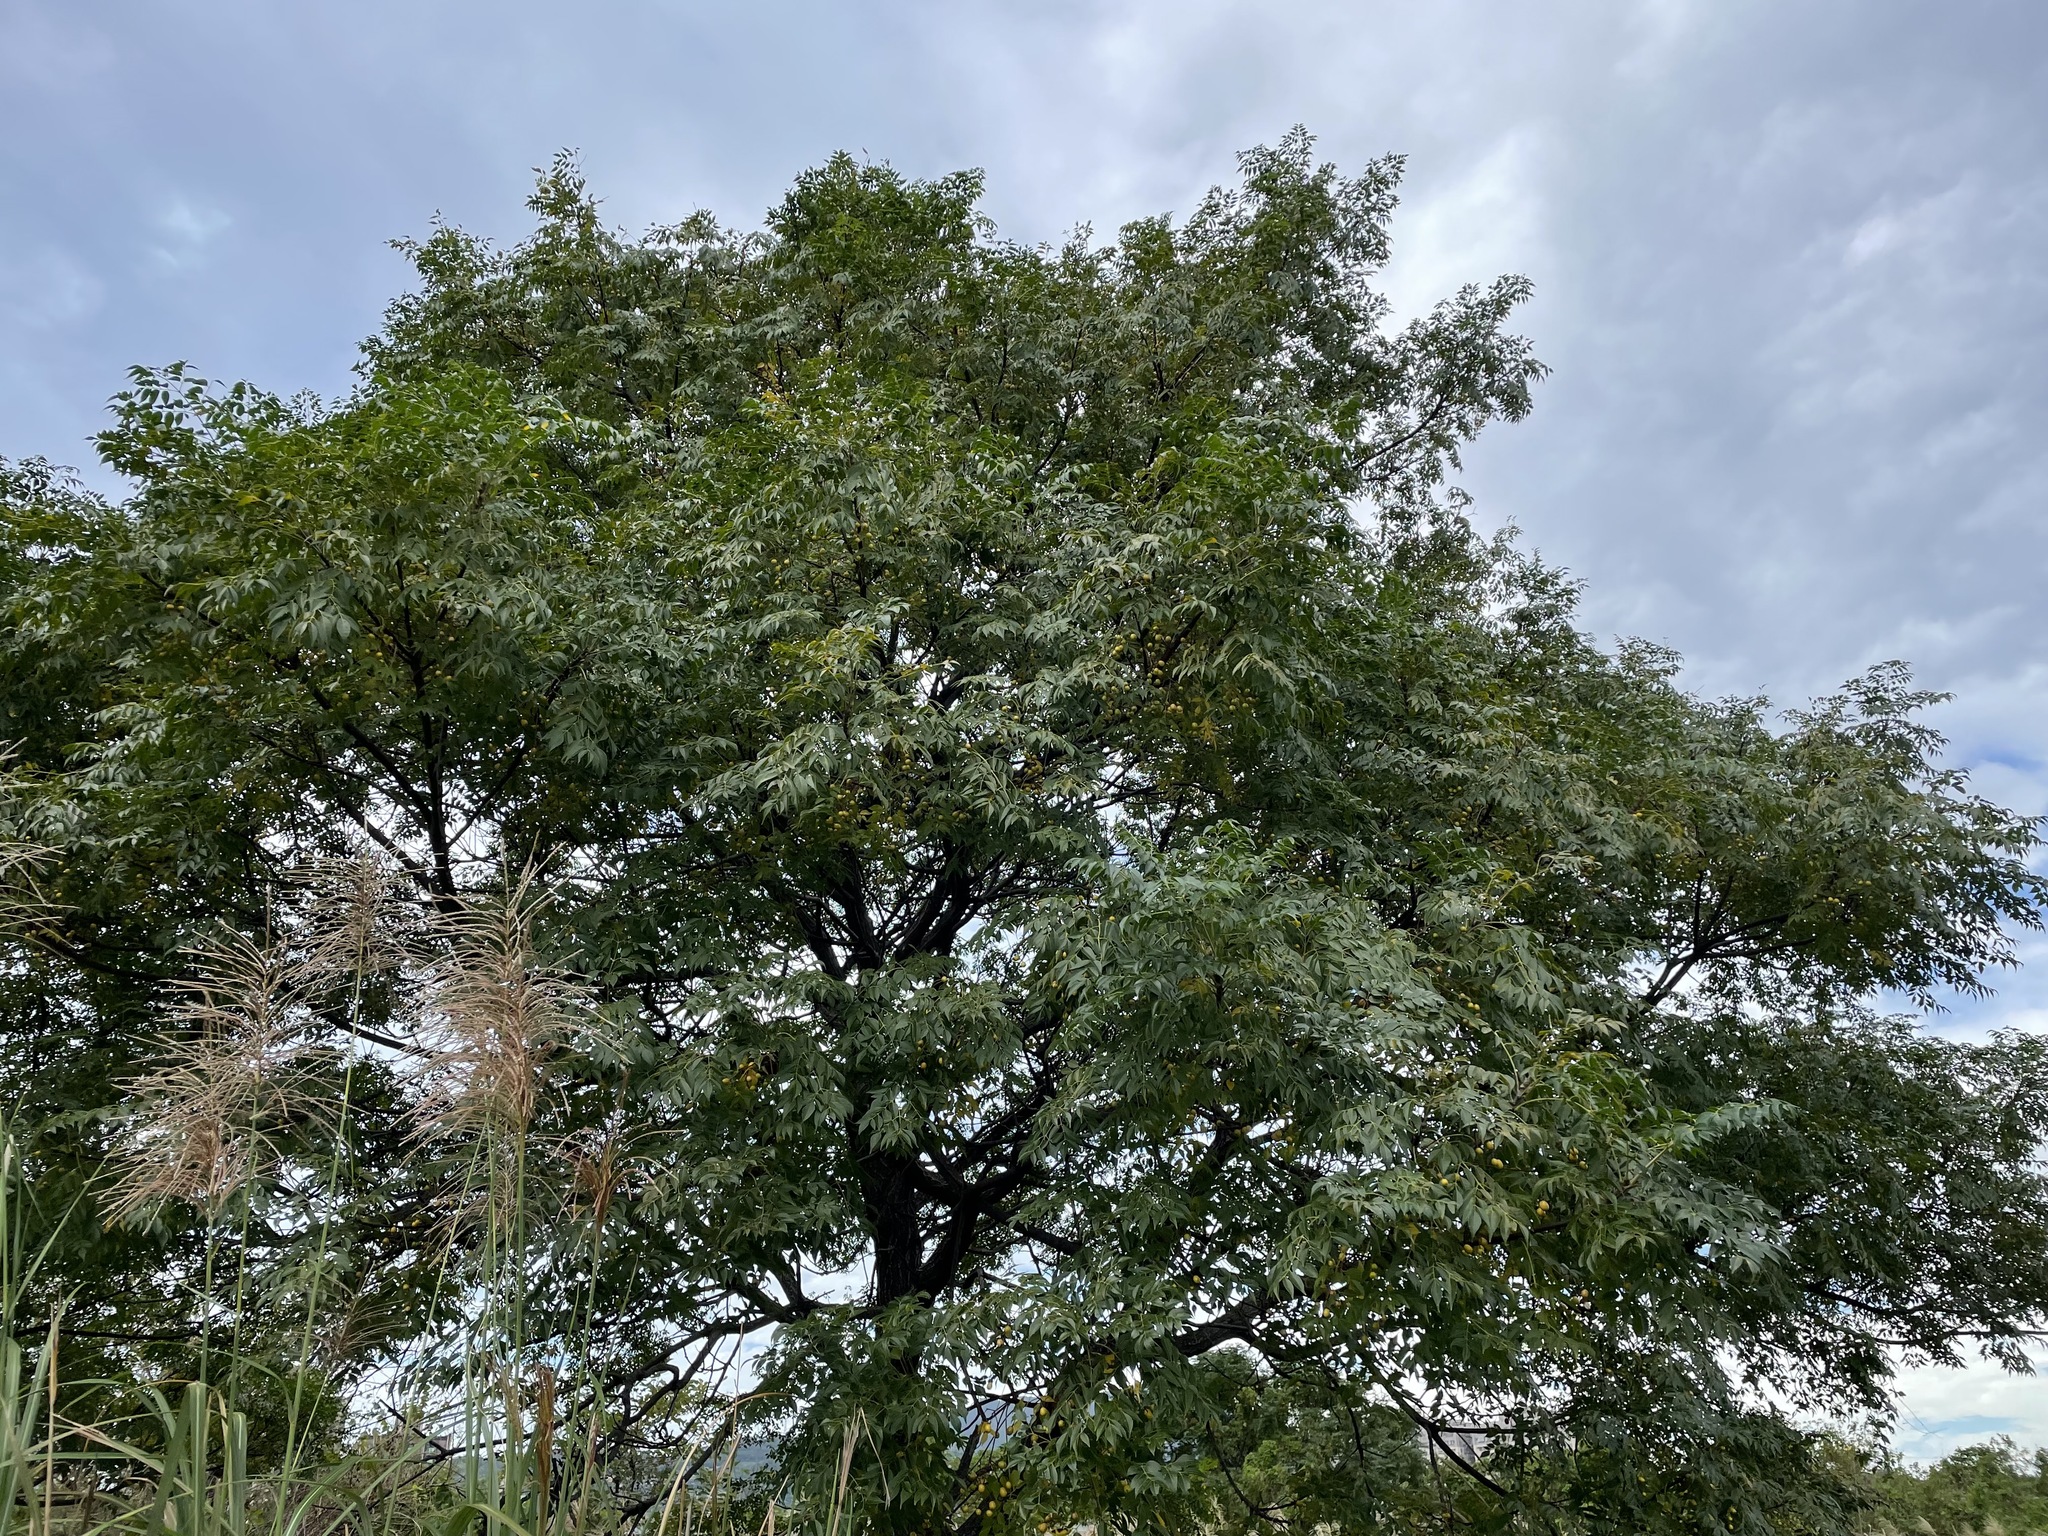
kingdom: Plantae
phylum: Tracheophyta
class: Magnoliopsida
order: Sapindales
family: Meliaceae
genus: Melia
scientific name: Melia azedarach
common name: Chinaberrytree
